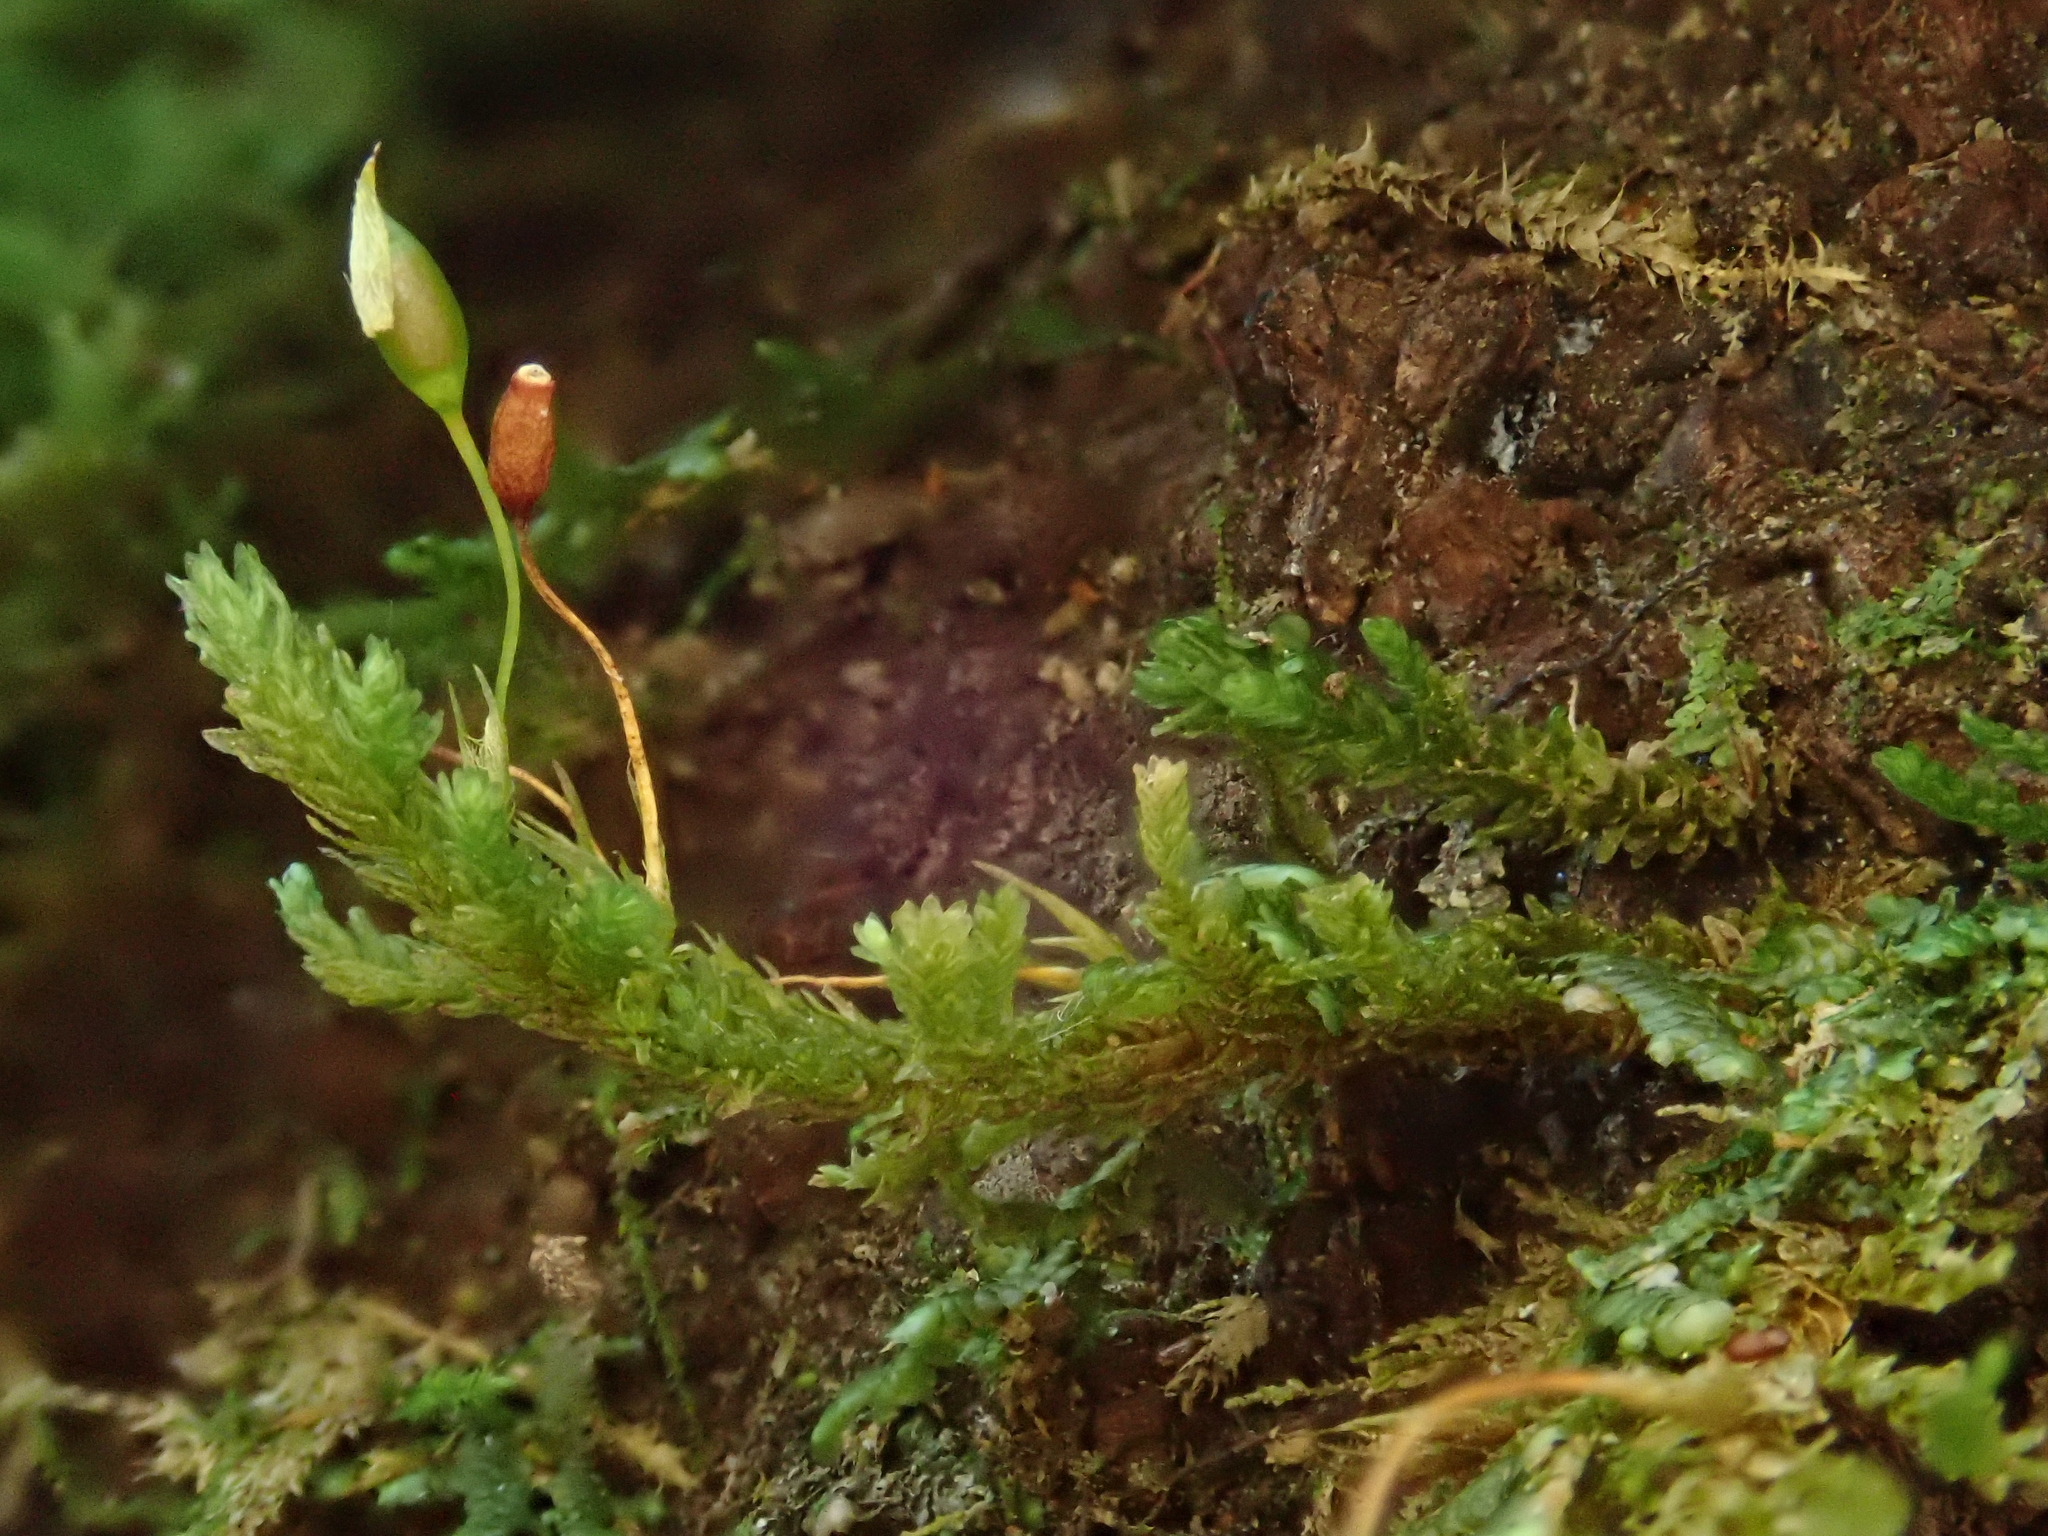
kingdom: Plantae
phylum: Bryophyta
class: Bryopsida
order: Hypnales
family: Neckeraceae
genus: Leptodon
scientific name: Leptodon longisetus
